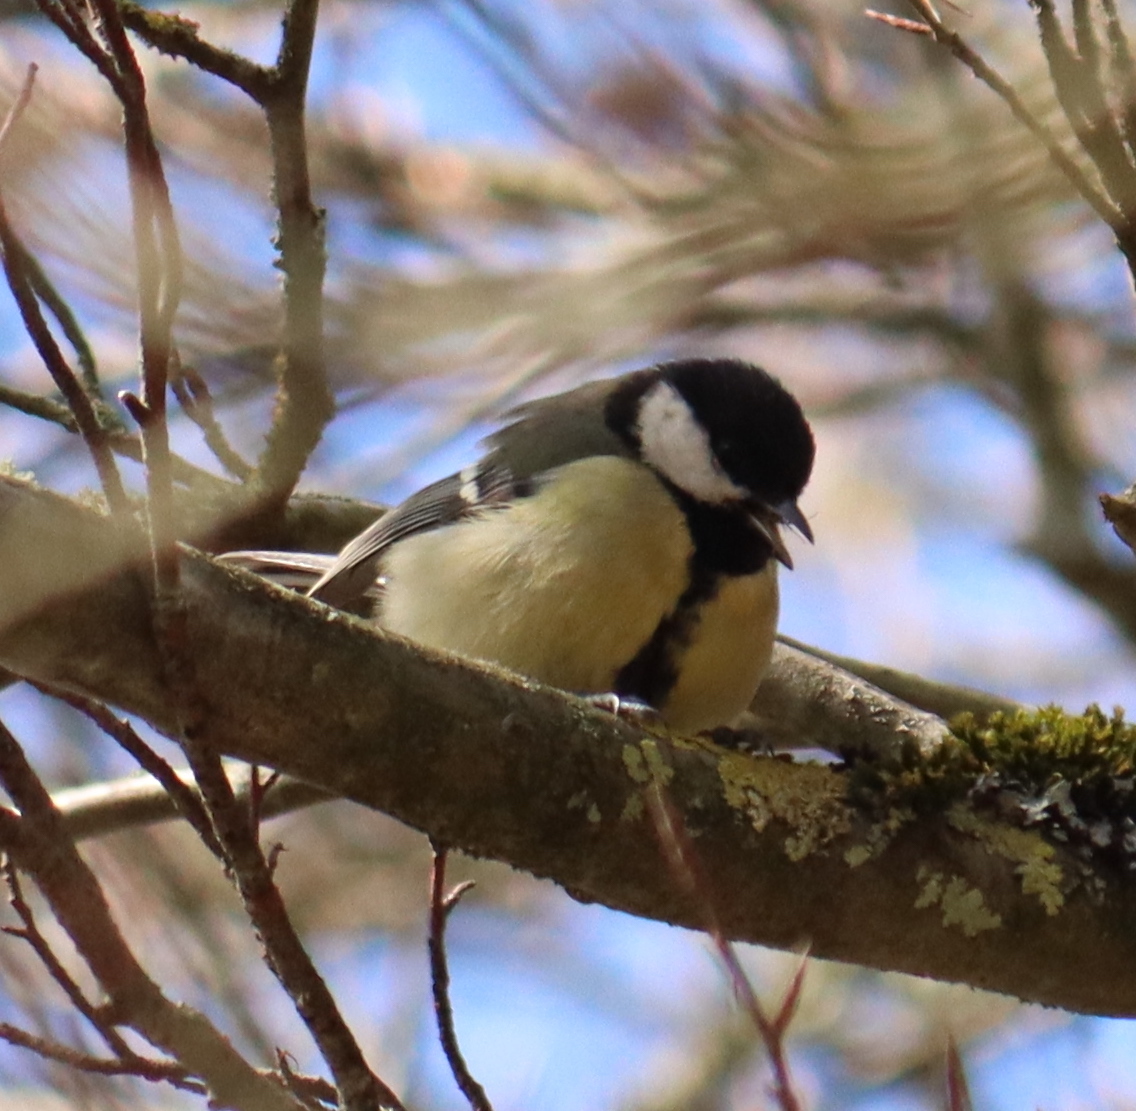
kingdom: Animalia
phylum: Chordata
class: Aves
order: Passeriformes
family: Paridae
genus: Parus
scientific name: Parus major
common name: Great tit
